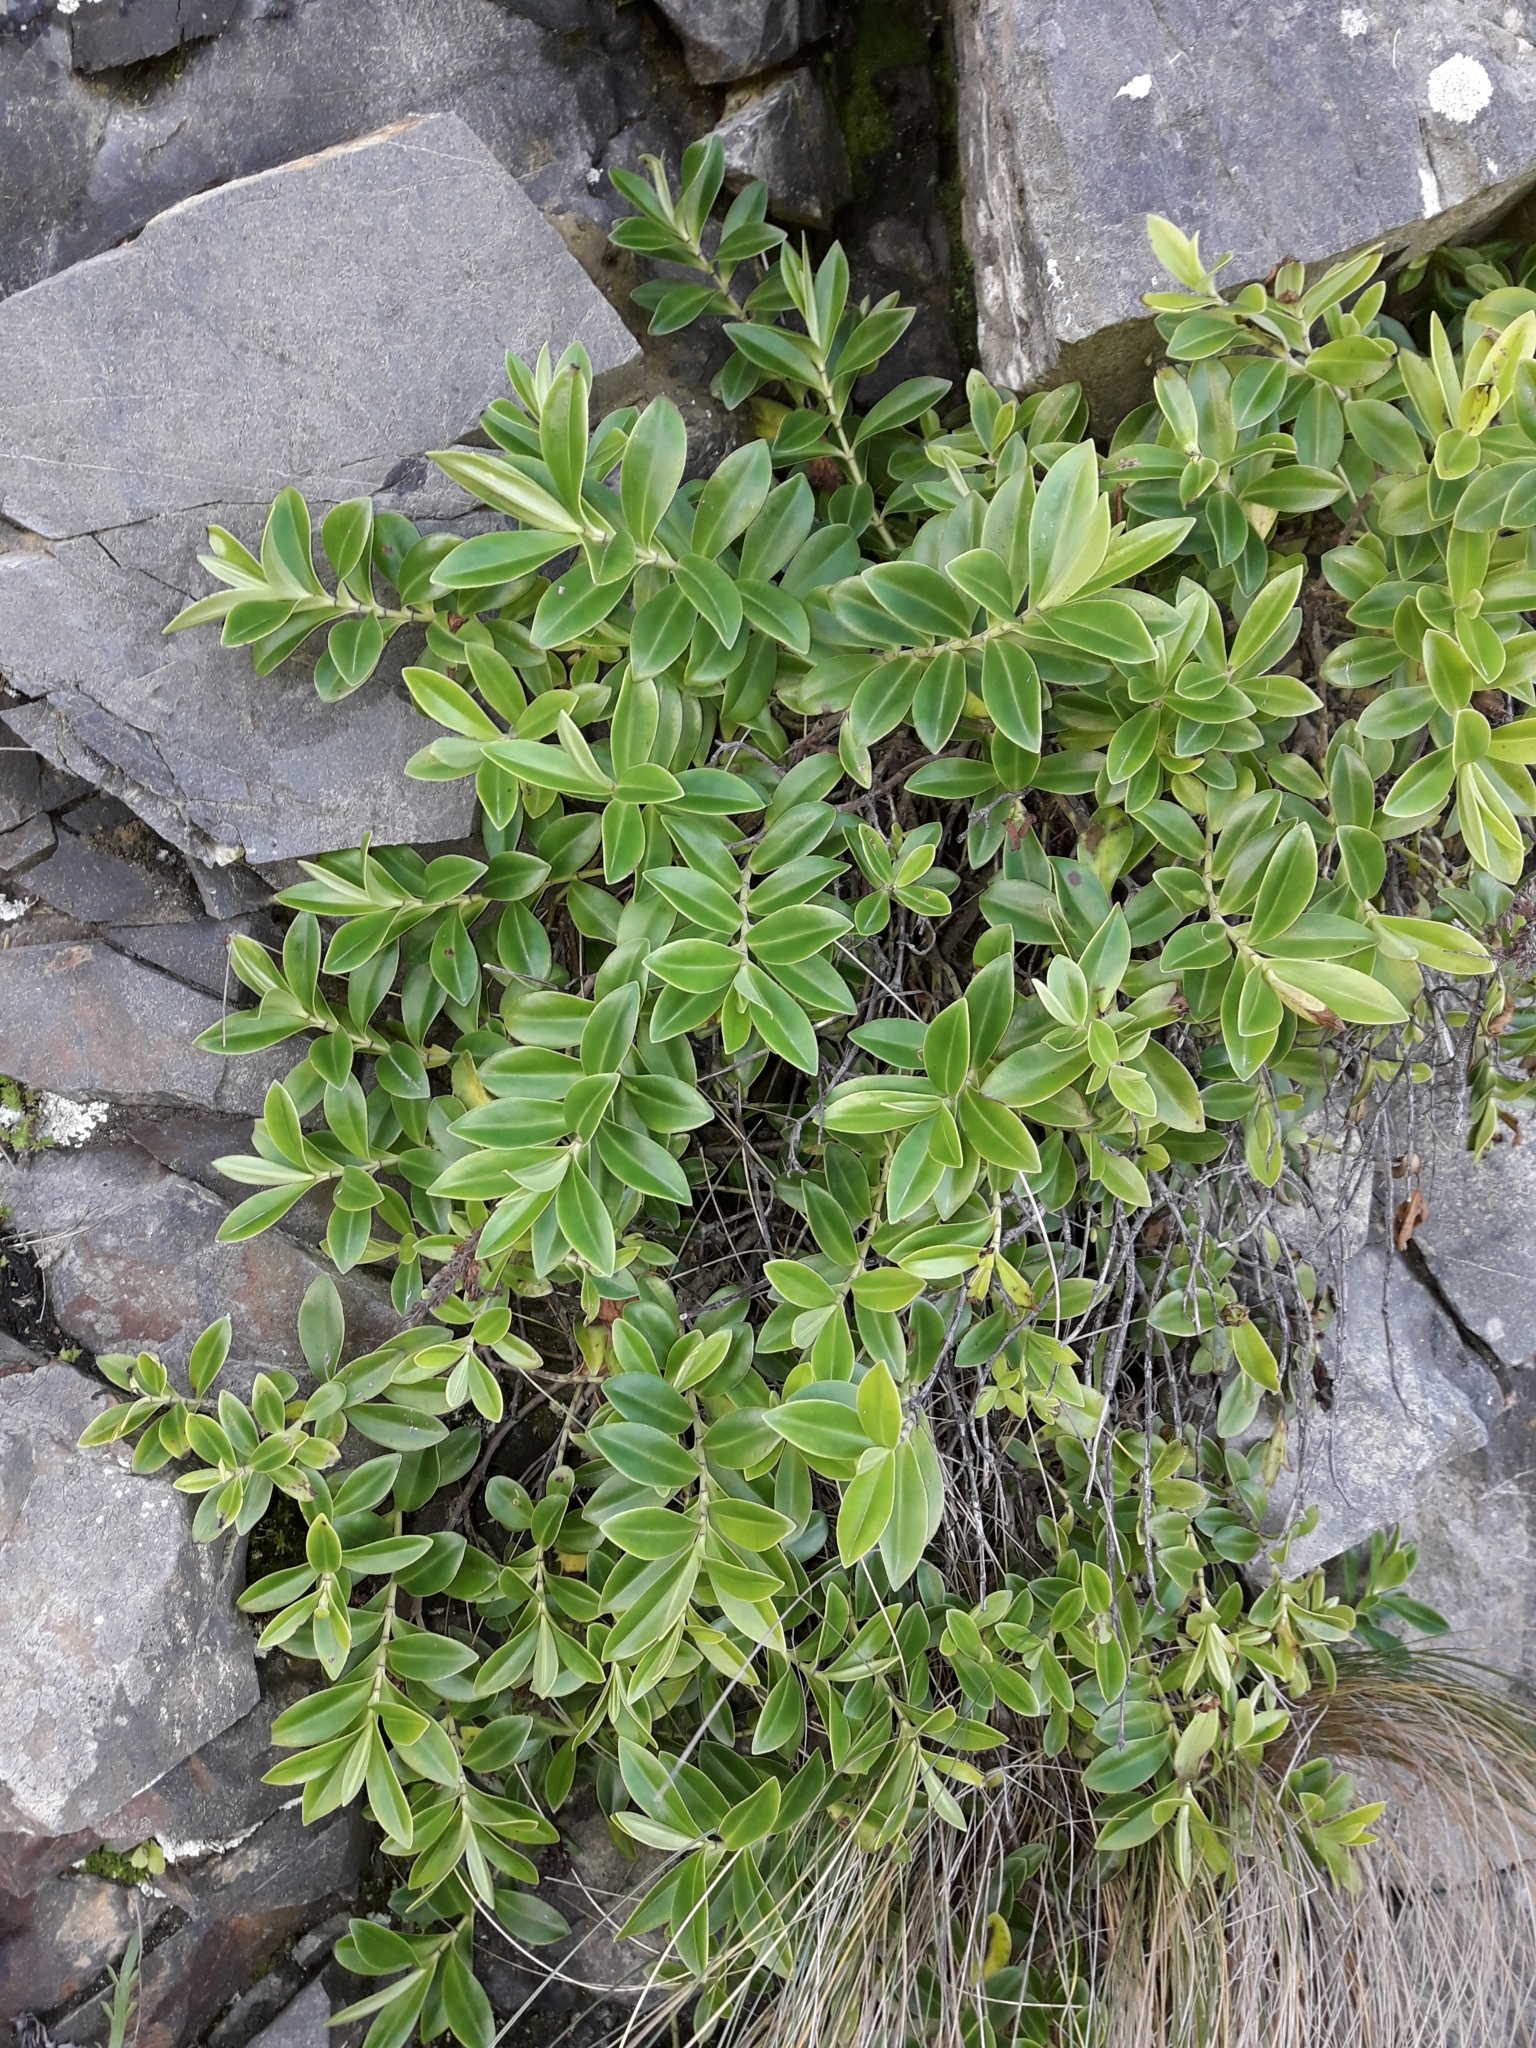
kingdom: Plantae
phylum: Tracheophyta
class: Magnoliopsida
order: Lamiales
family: Plantaginaceae
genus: Veronica
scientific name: Veronica stricta
